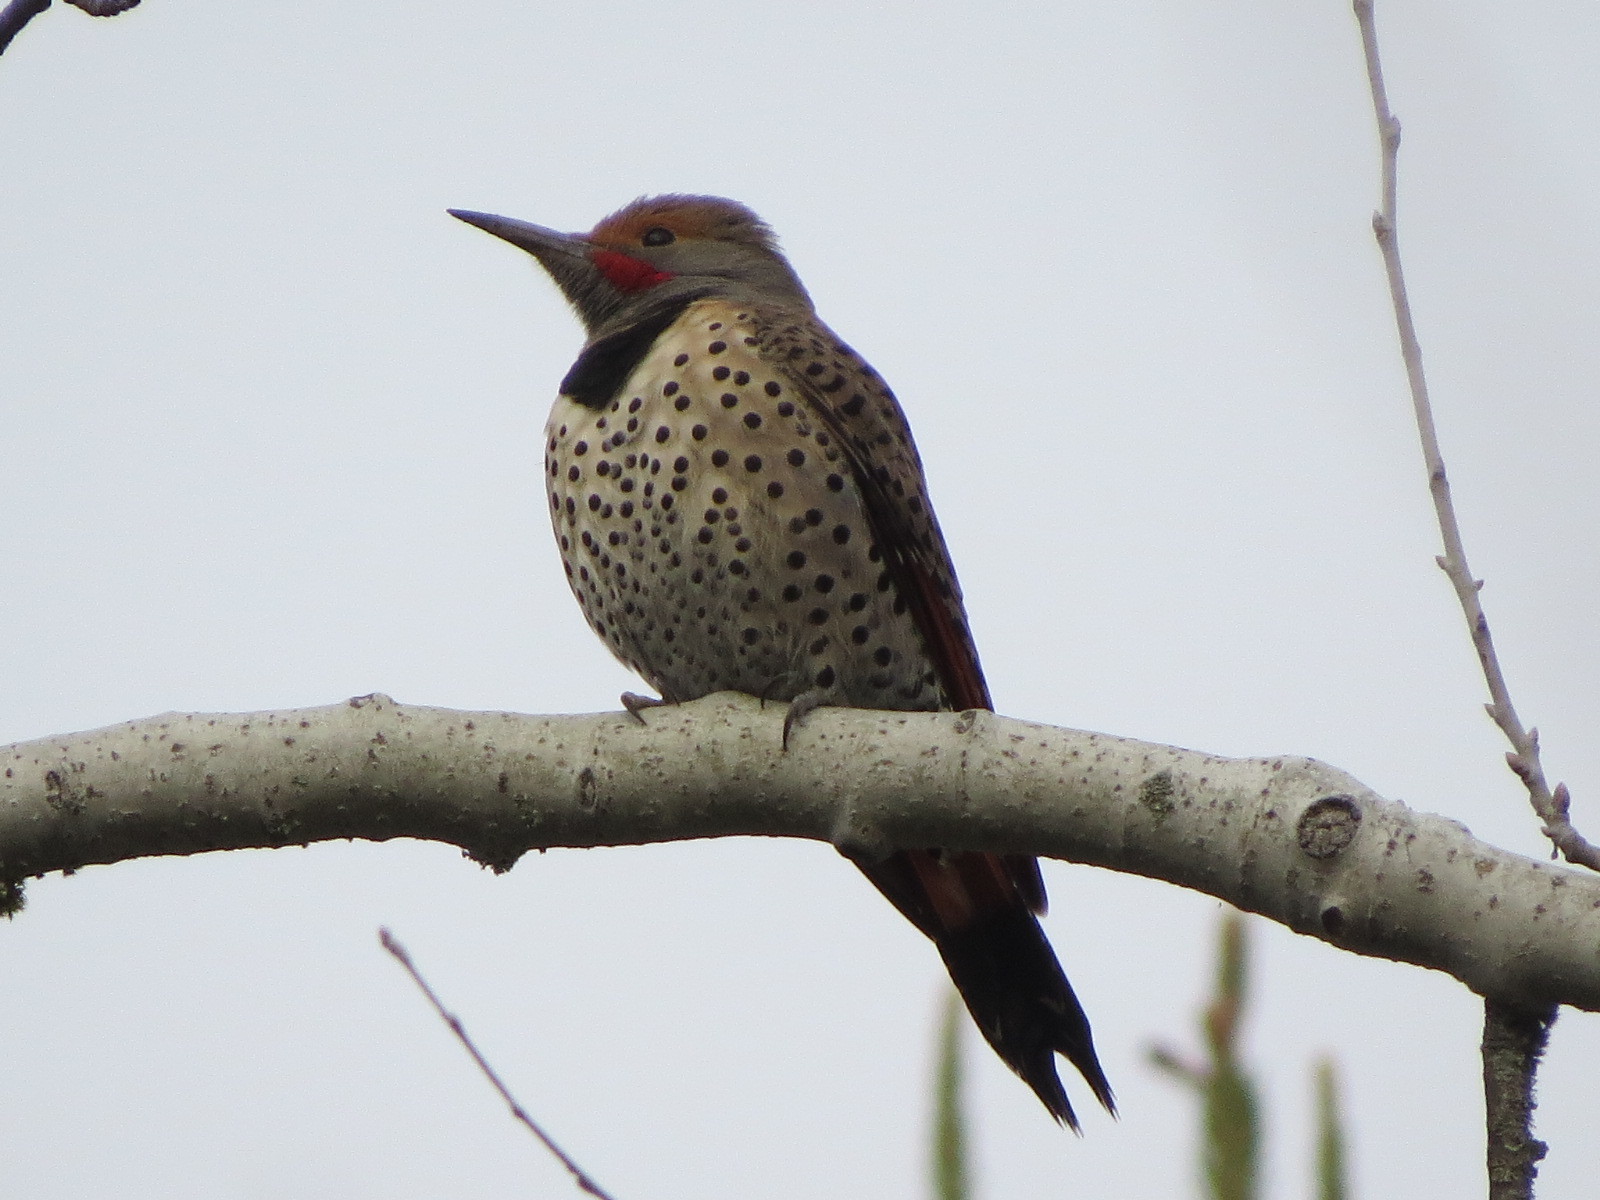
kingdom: Animalia
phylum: Chordata
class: Aves
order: Piciformes
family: Picidae
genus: Colaptes
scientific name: Colaptes auratus
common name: Northern flicker
